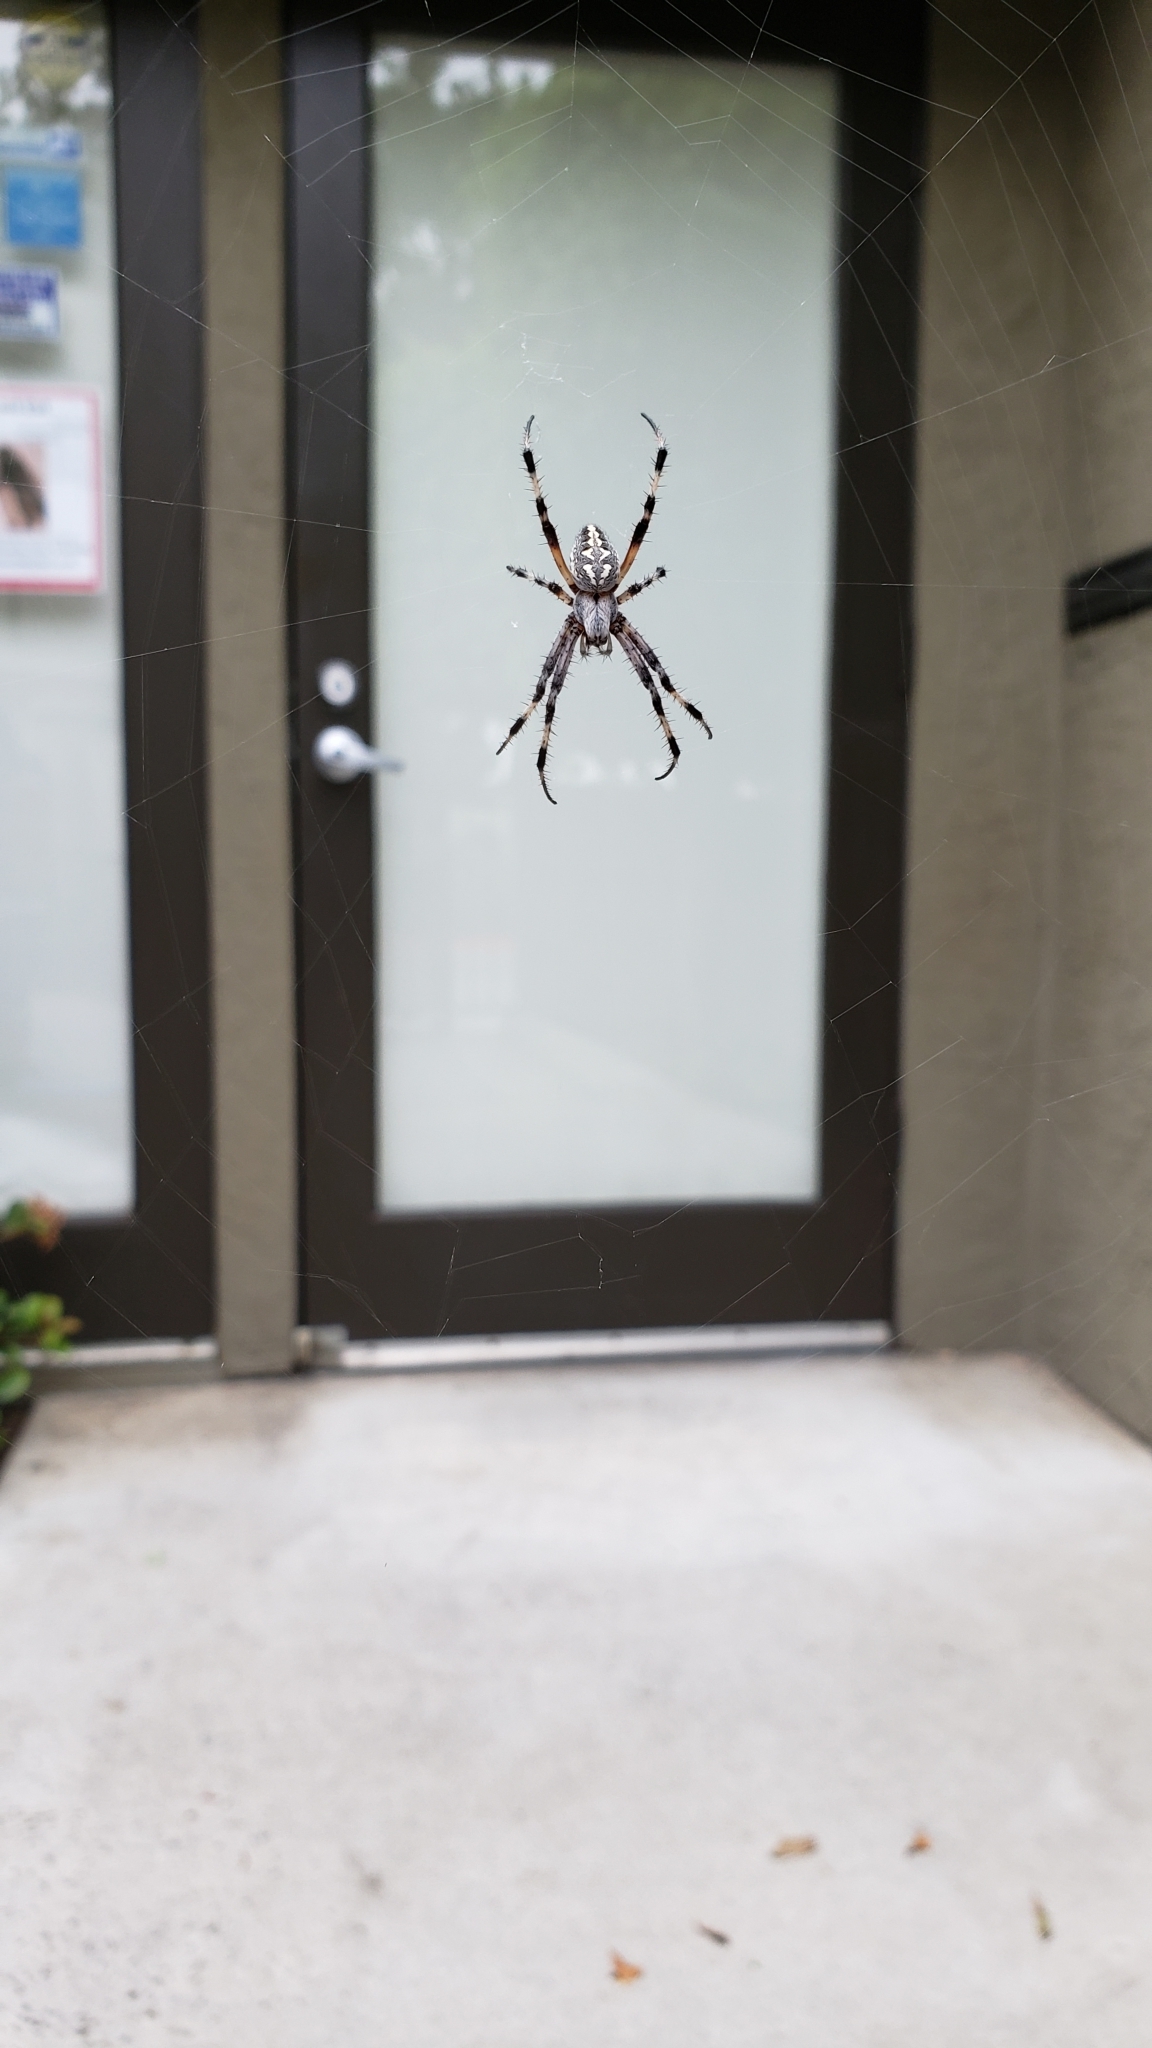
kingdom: Animalia
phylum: Arthropoda
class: Arachnida
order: Araneae
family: Araneidae
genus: Neoscona
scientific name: Neoscona oaxacensis
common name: Orb weavers
